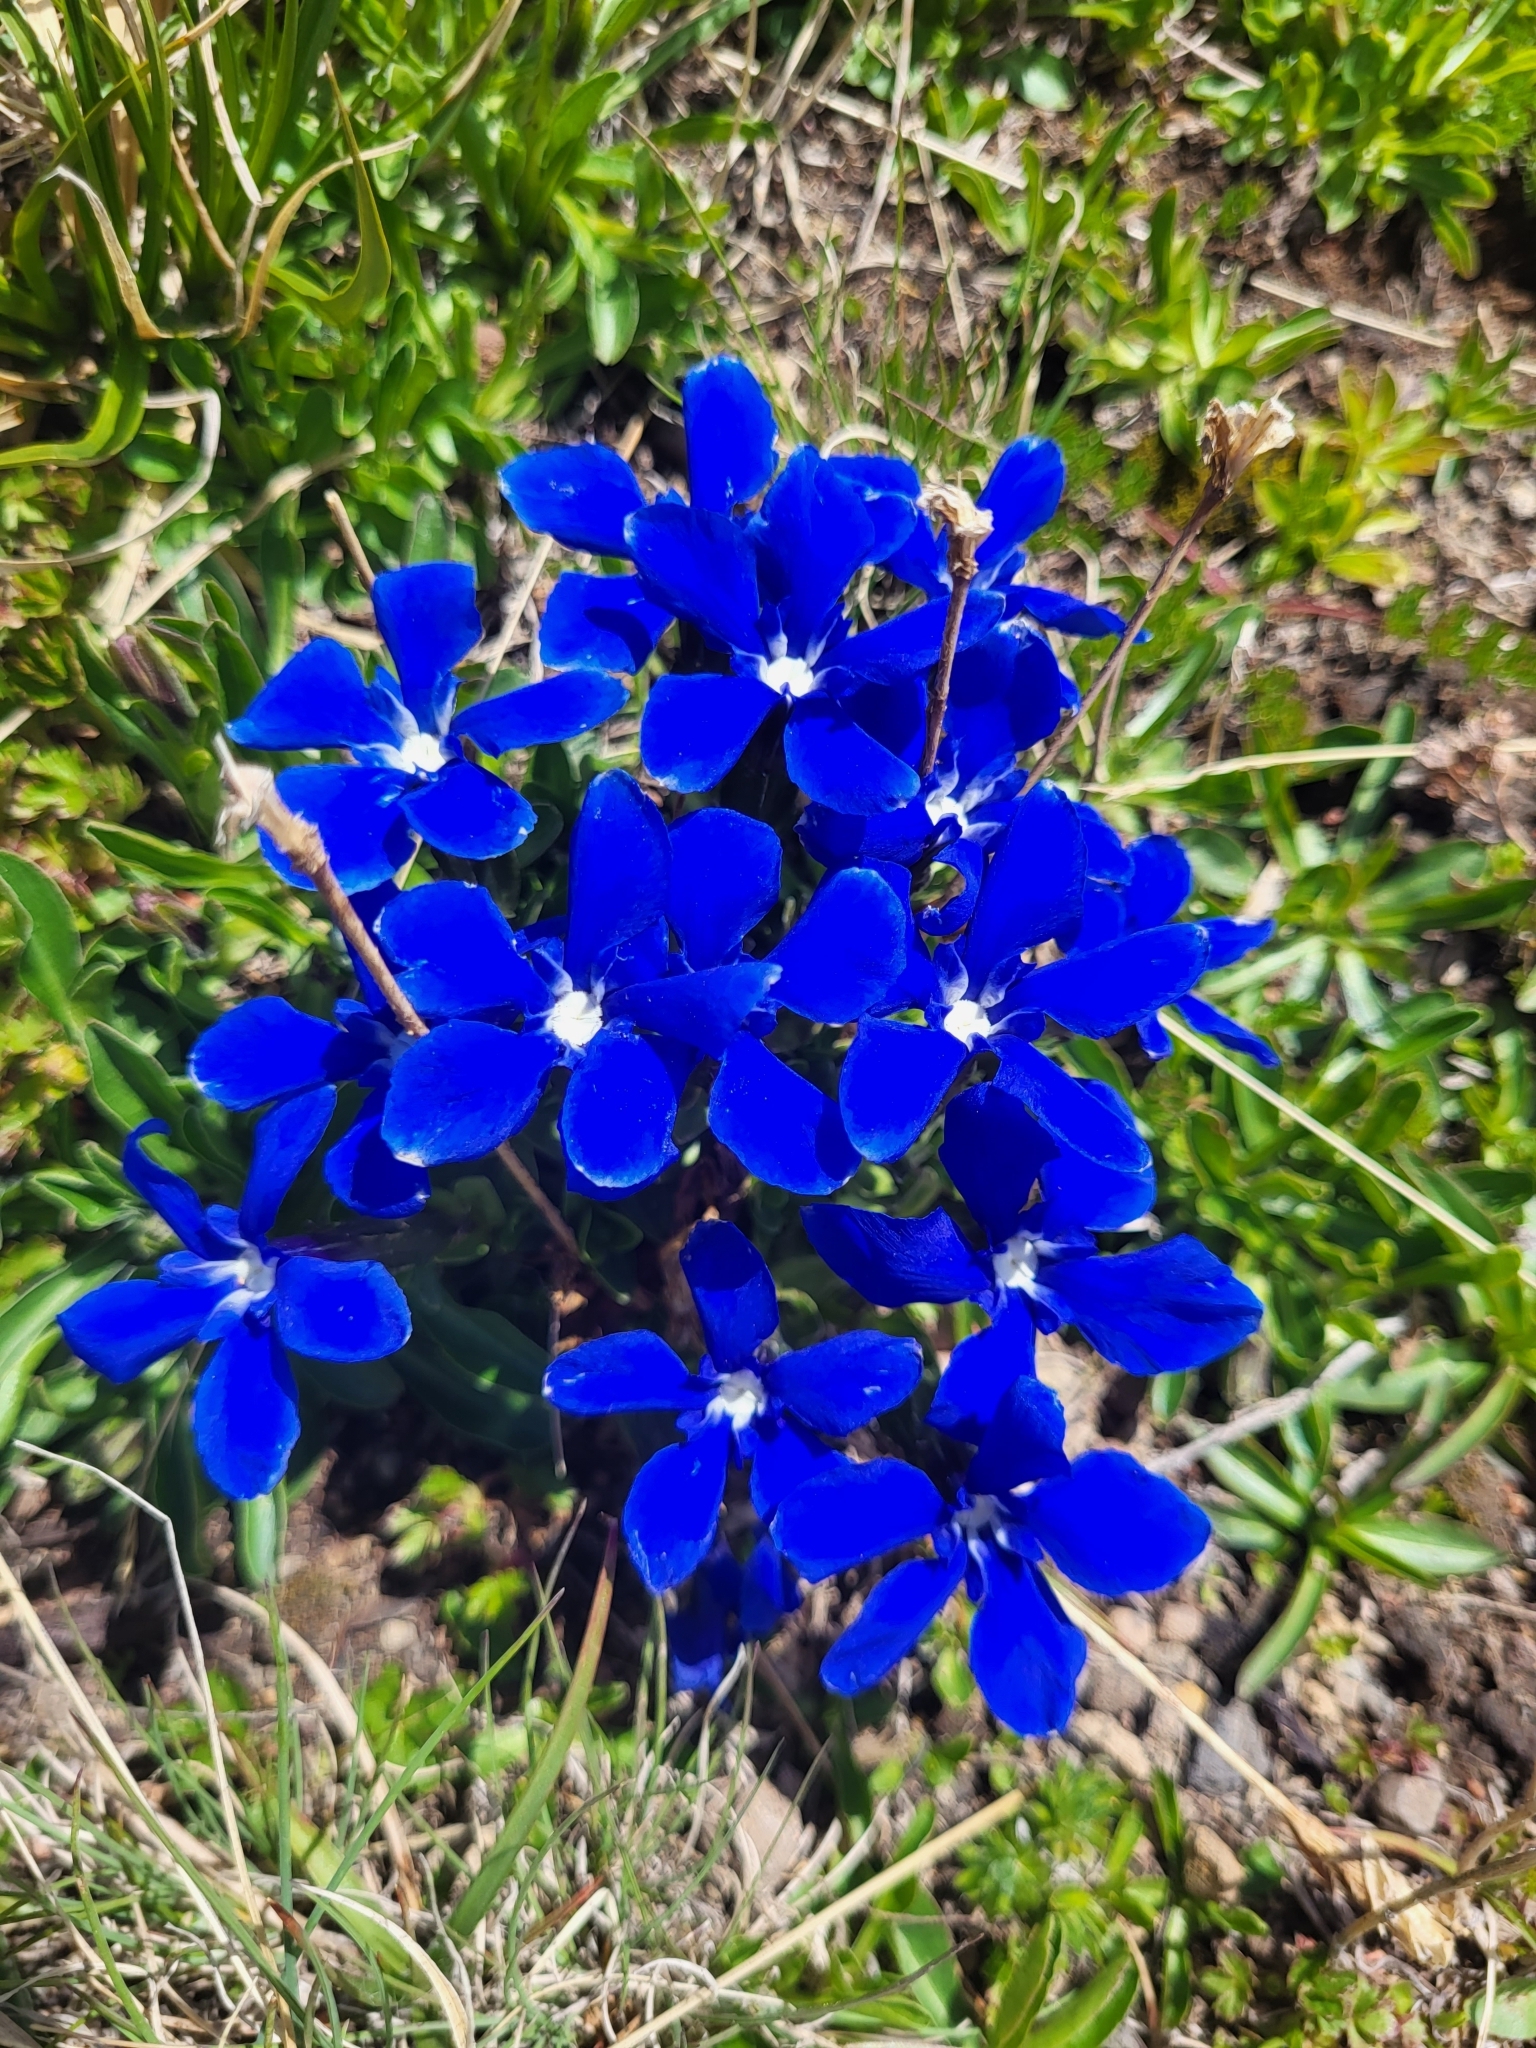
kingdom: Plantae
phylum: Tracheophyta
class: Magnoliopsida
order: Gentianales
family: Gentianaceae
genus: Gentiana
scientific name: Gentiana verna
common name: Spring gentian
